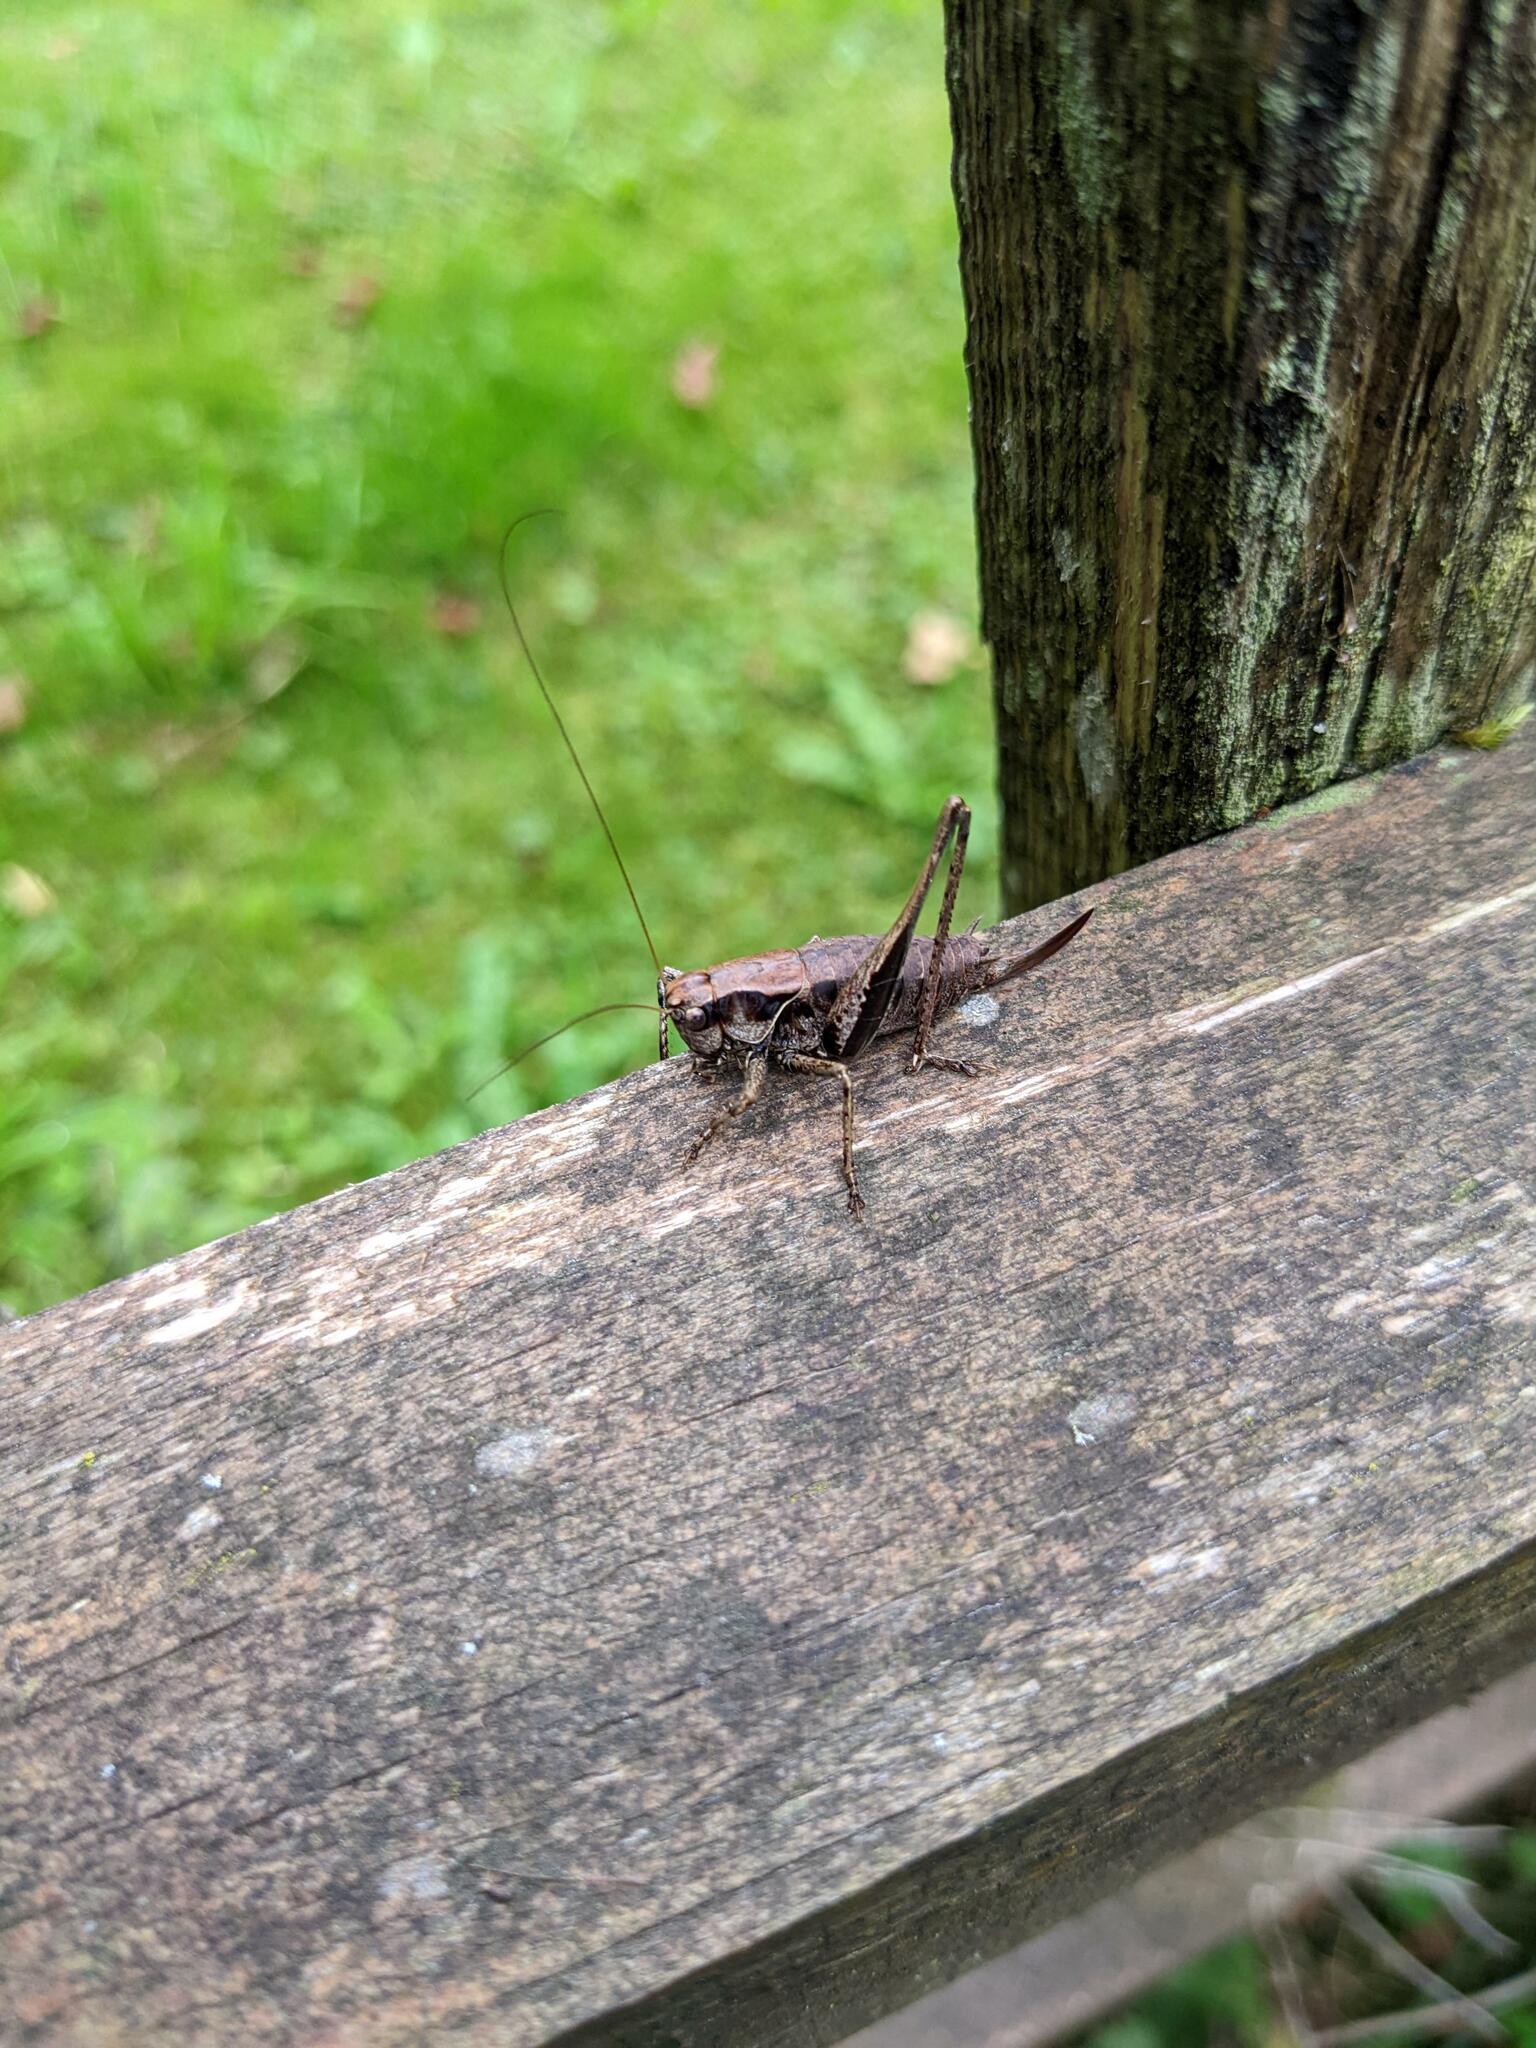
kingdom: Animalia
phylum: Arthropoda
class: Insecta
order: Orthoptera
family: Tettigoniidae
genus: Pholidoptera
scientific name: Pholidoptera griseoaptera
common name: Dark bush-cricket
